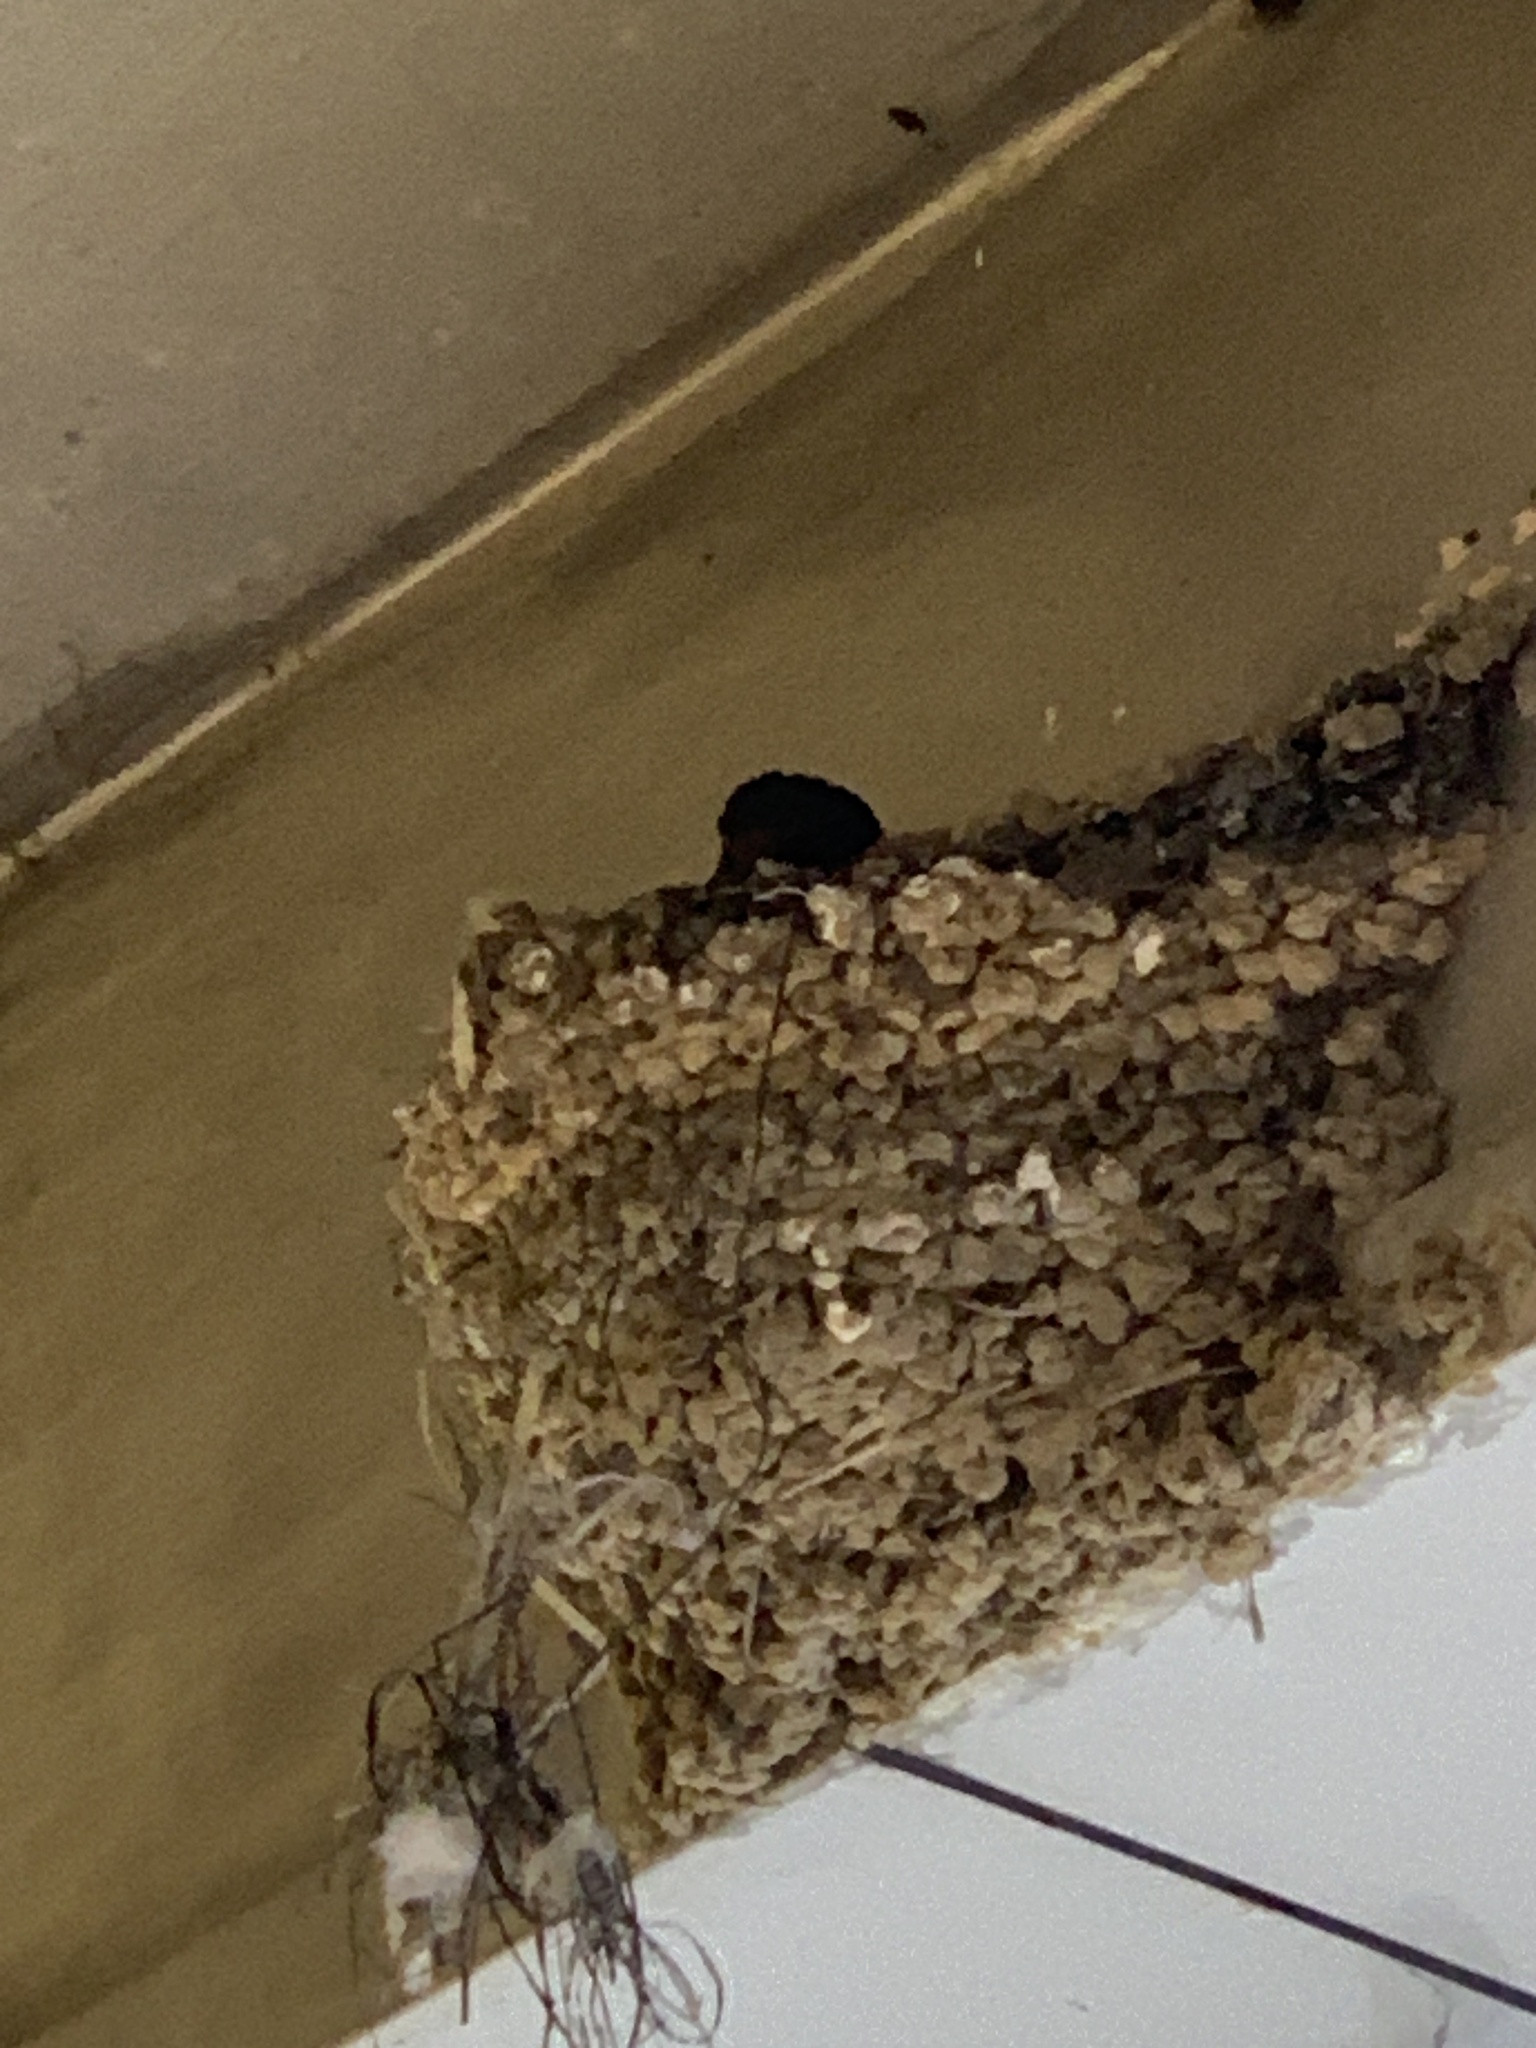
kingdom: Animalia
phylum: Chordata
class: Aves
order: Passeriformes
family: Hirundinidae
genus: Hirundo
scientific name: Hirundo rustica
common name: Barn swallow
